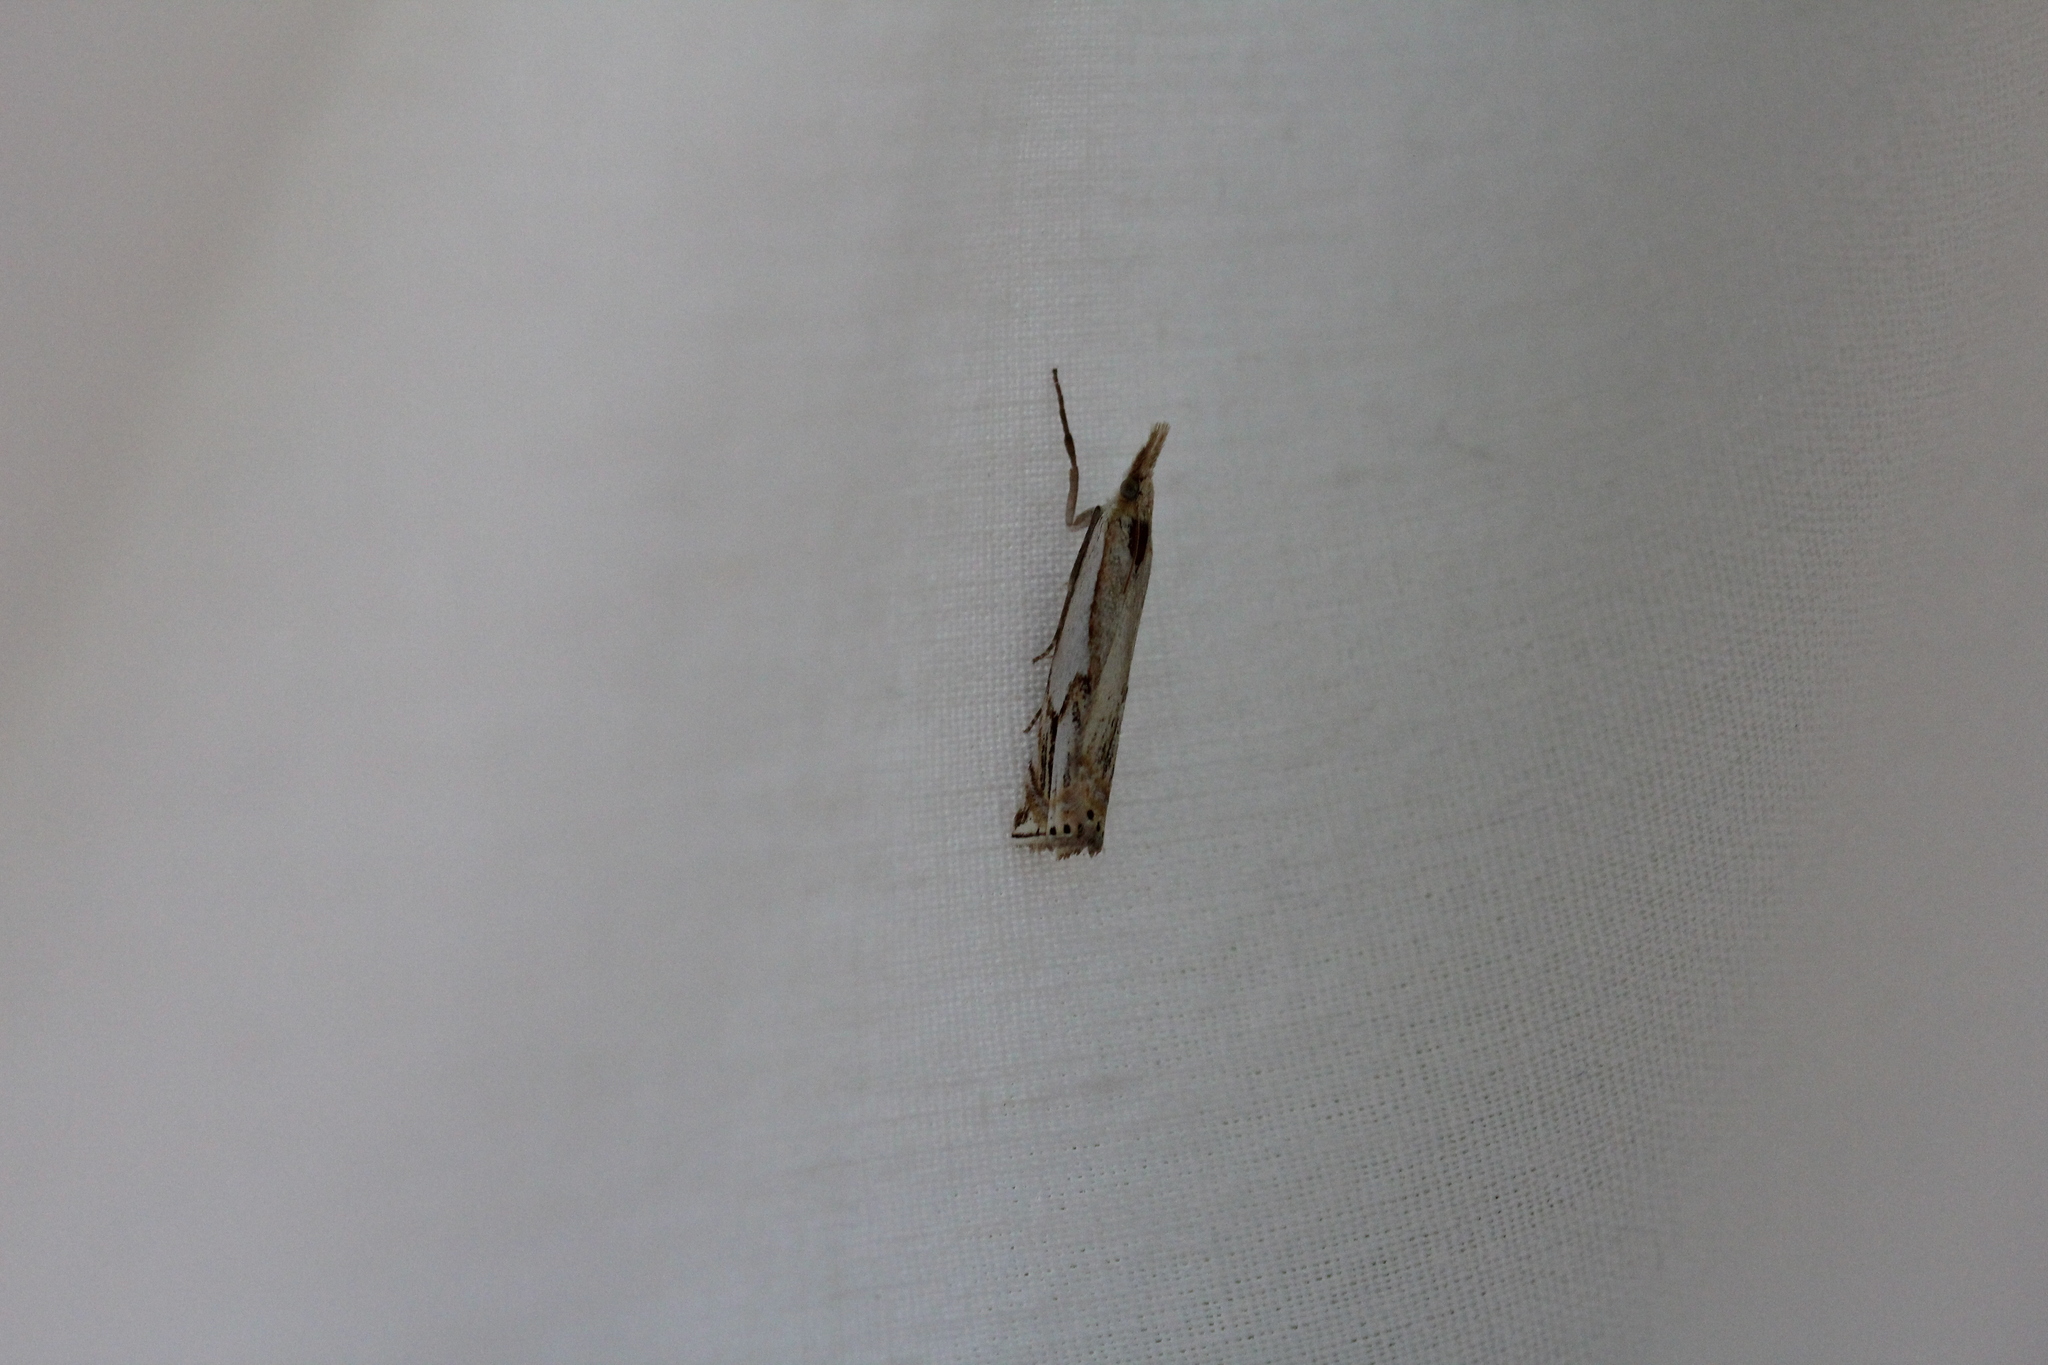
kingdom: Animalia
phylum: Arthropoda
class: Insecta
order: Lepidoptera
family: Crambidae
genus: Crambus
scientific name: Crambus agitatellus
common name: Double-banded grass-veneer
